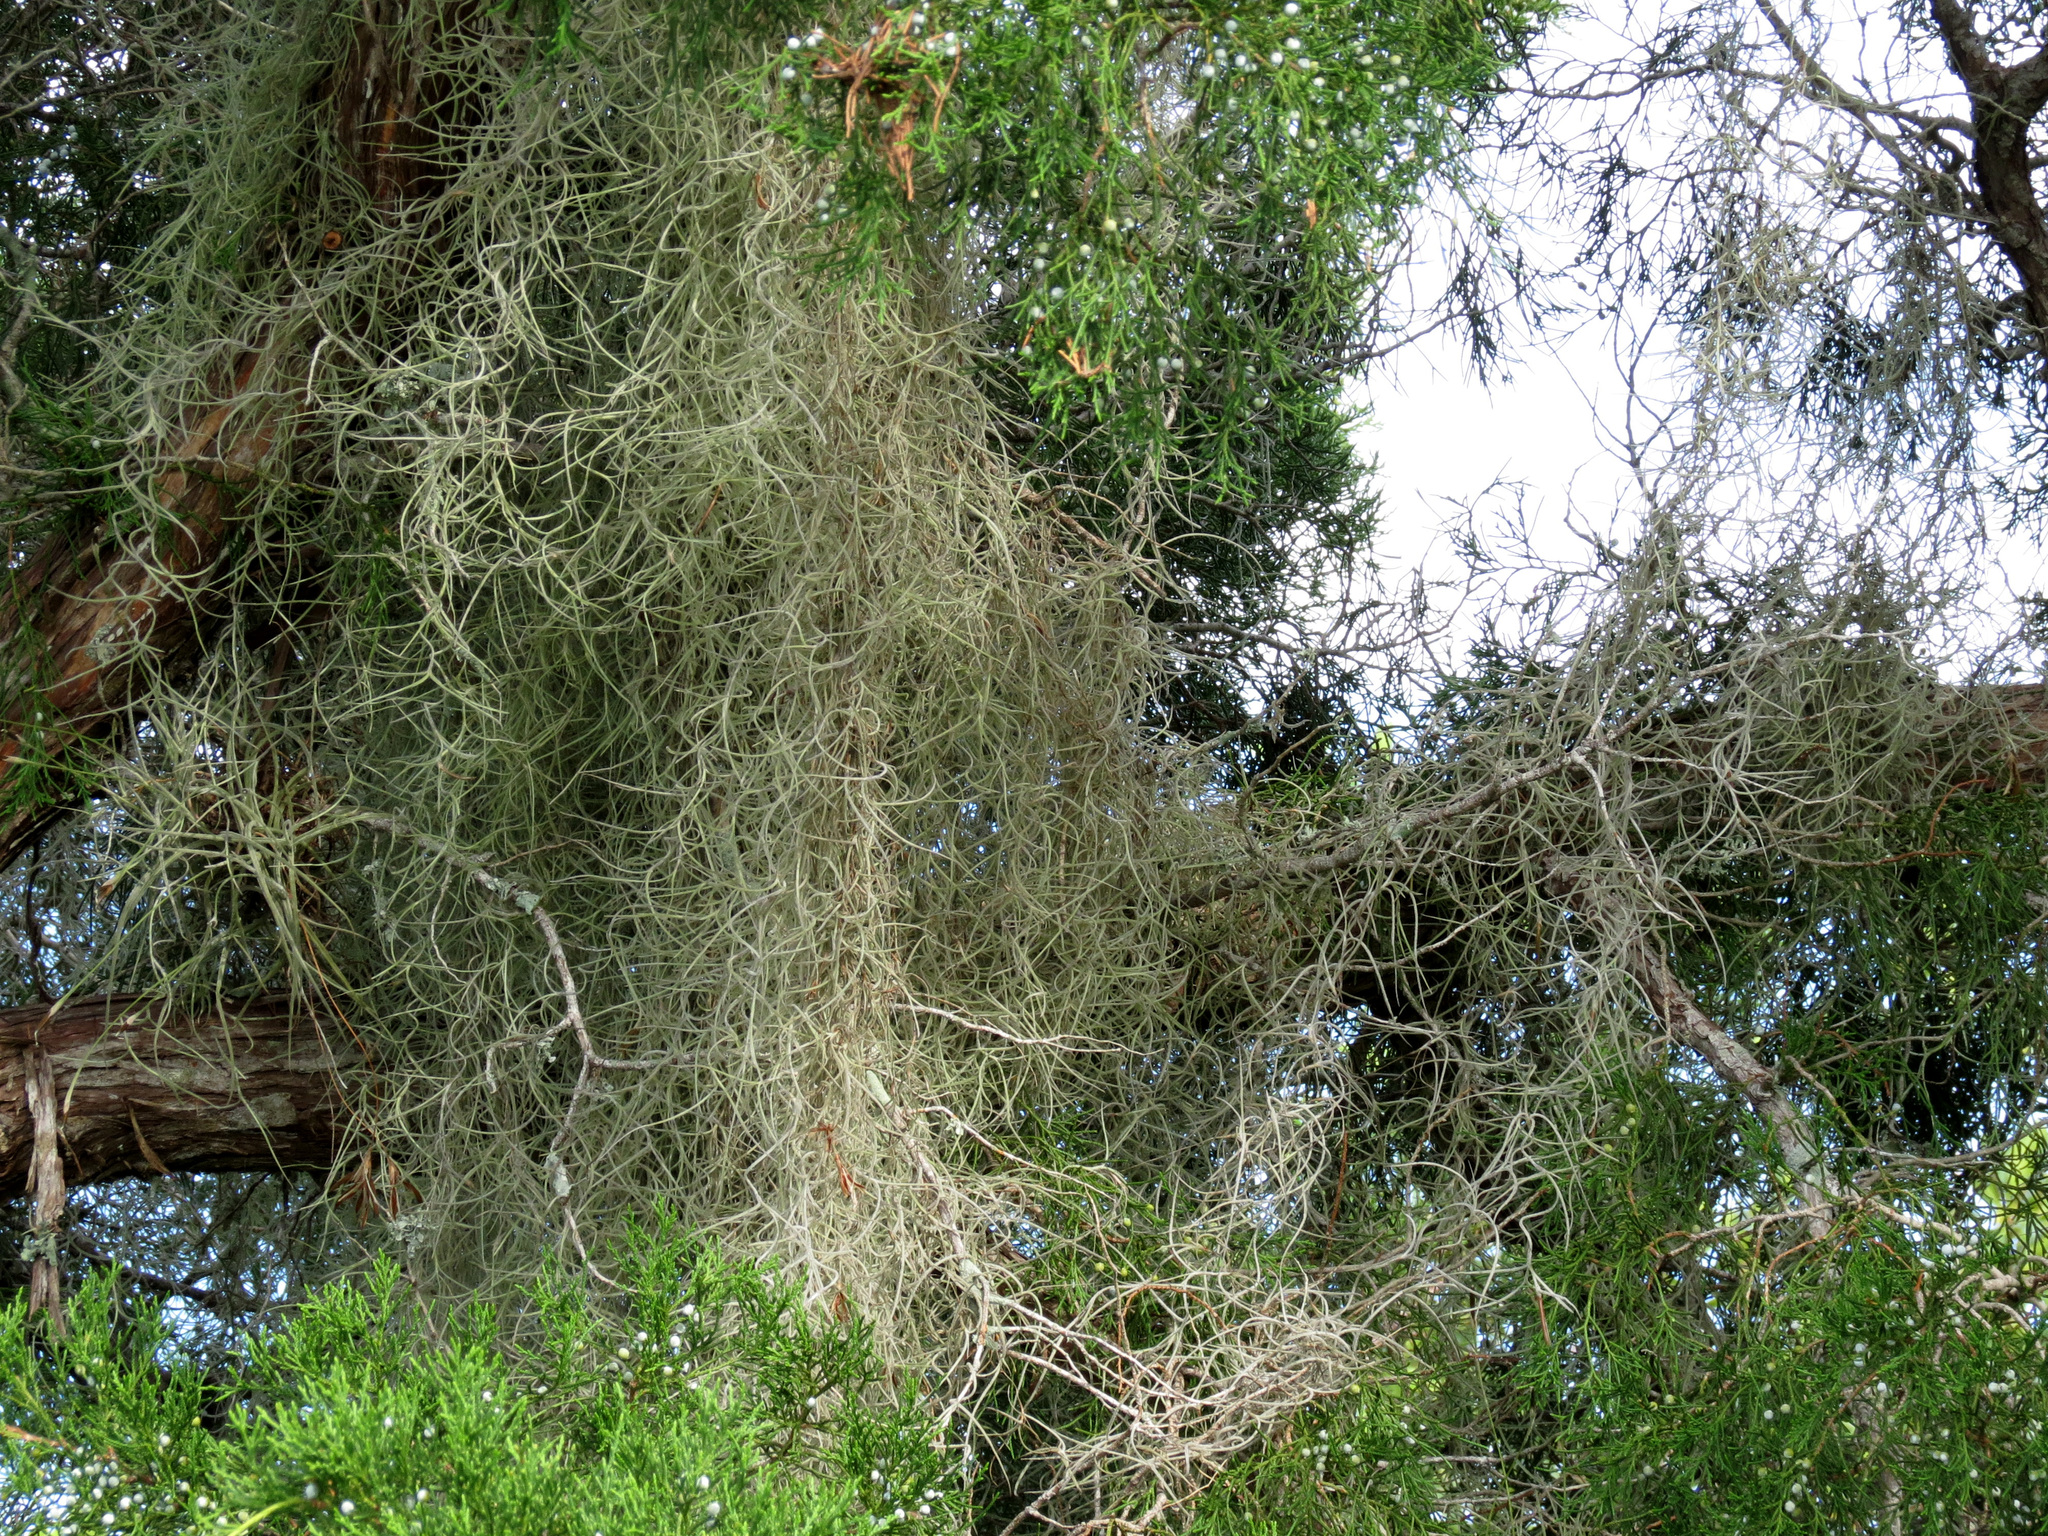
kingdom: Plantae
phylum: Tracheophyta
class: Liliopsida
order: Poales
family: Bromeliaceae
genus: Tillandsia
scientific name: Tillandsia usneoides
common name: Spanish moss
